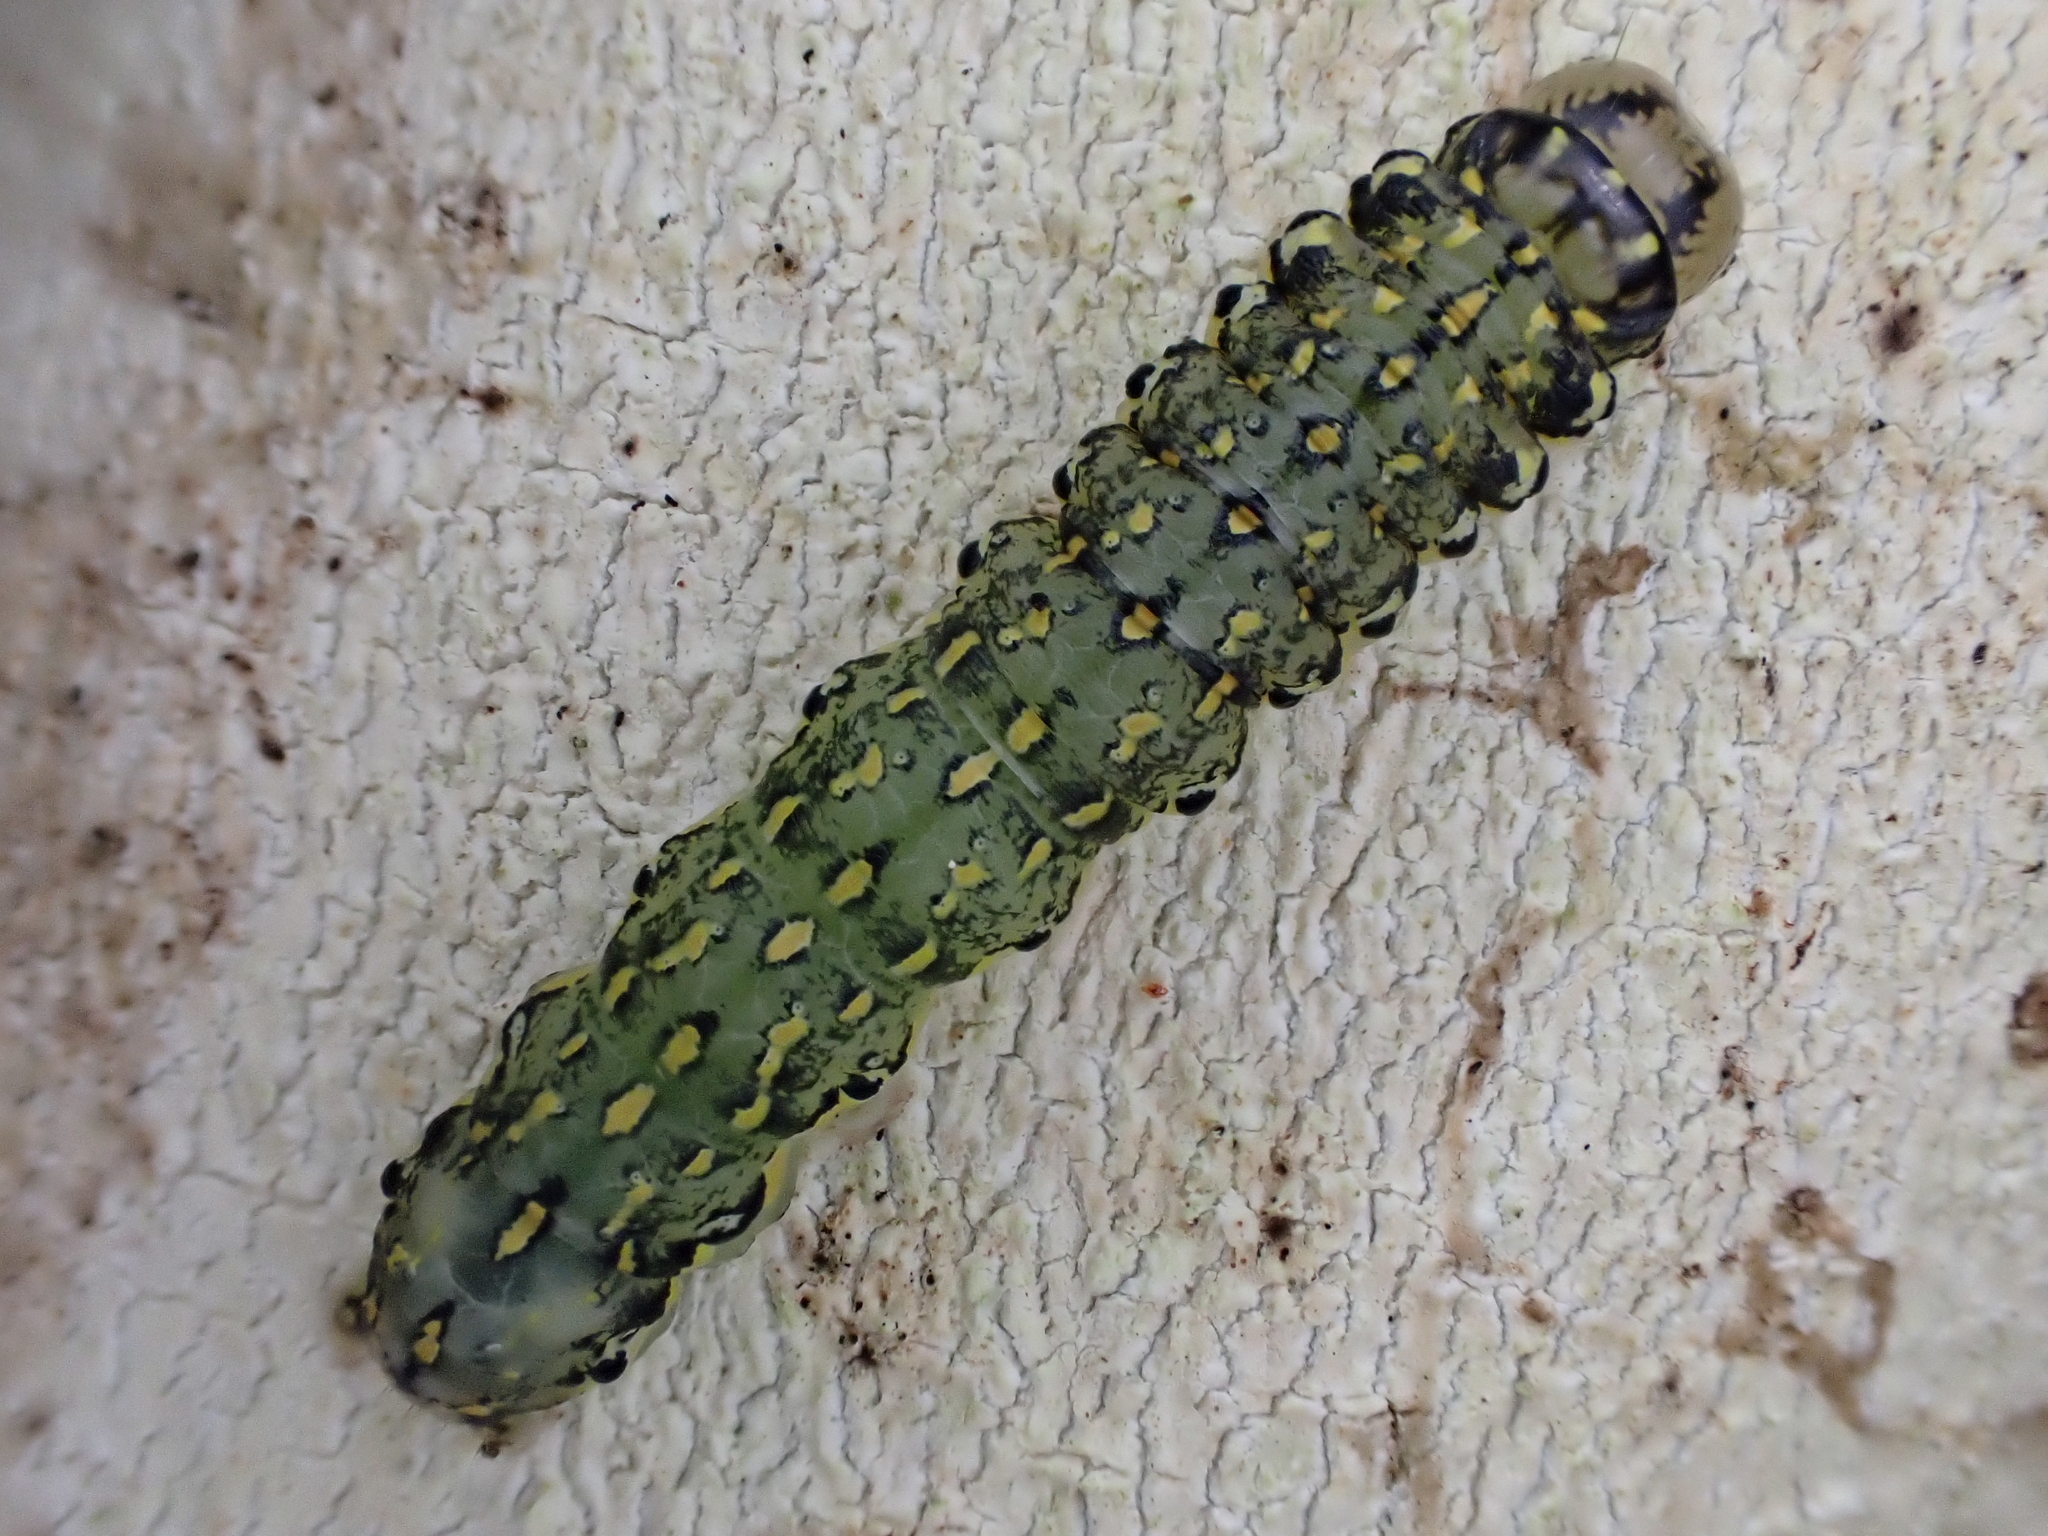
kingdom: Animalia
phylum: Arthropoda
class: Insecta
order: Lepidoptera
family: Noctuidae
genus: Austramathes
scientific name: Austramathes purpurea
